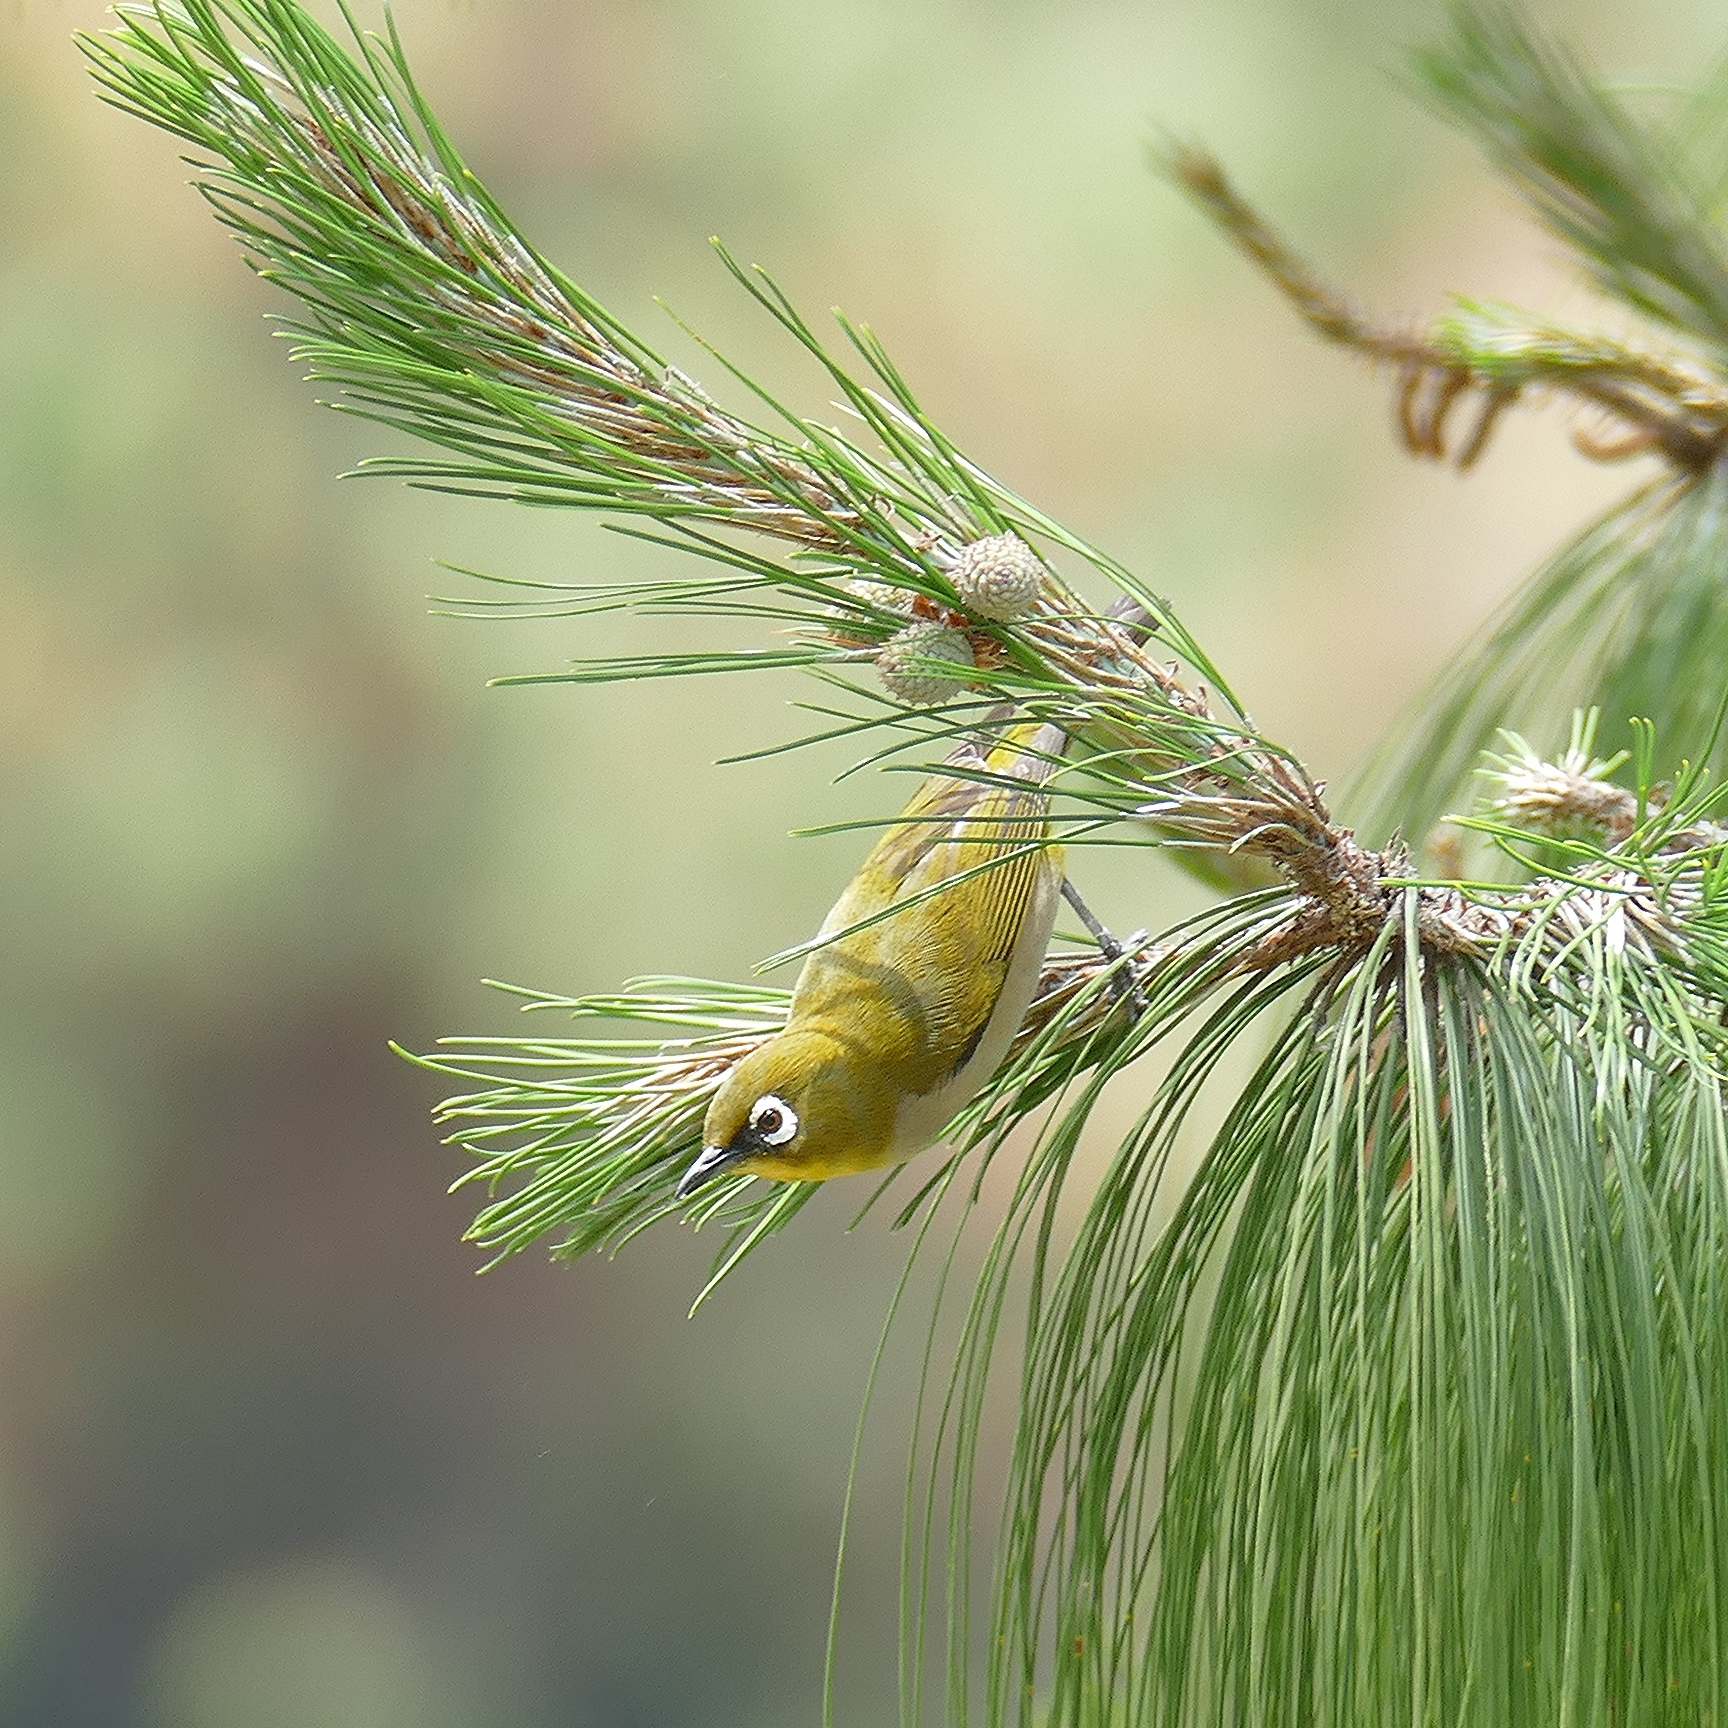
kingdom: Animalia
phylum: Chordata
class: Aves
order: Passeriformes
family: Zosteropidae
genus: Zosterops
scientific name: Zosterops maderaspatanus
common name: Madagascar white-eye
